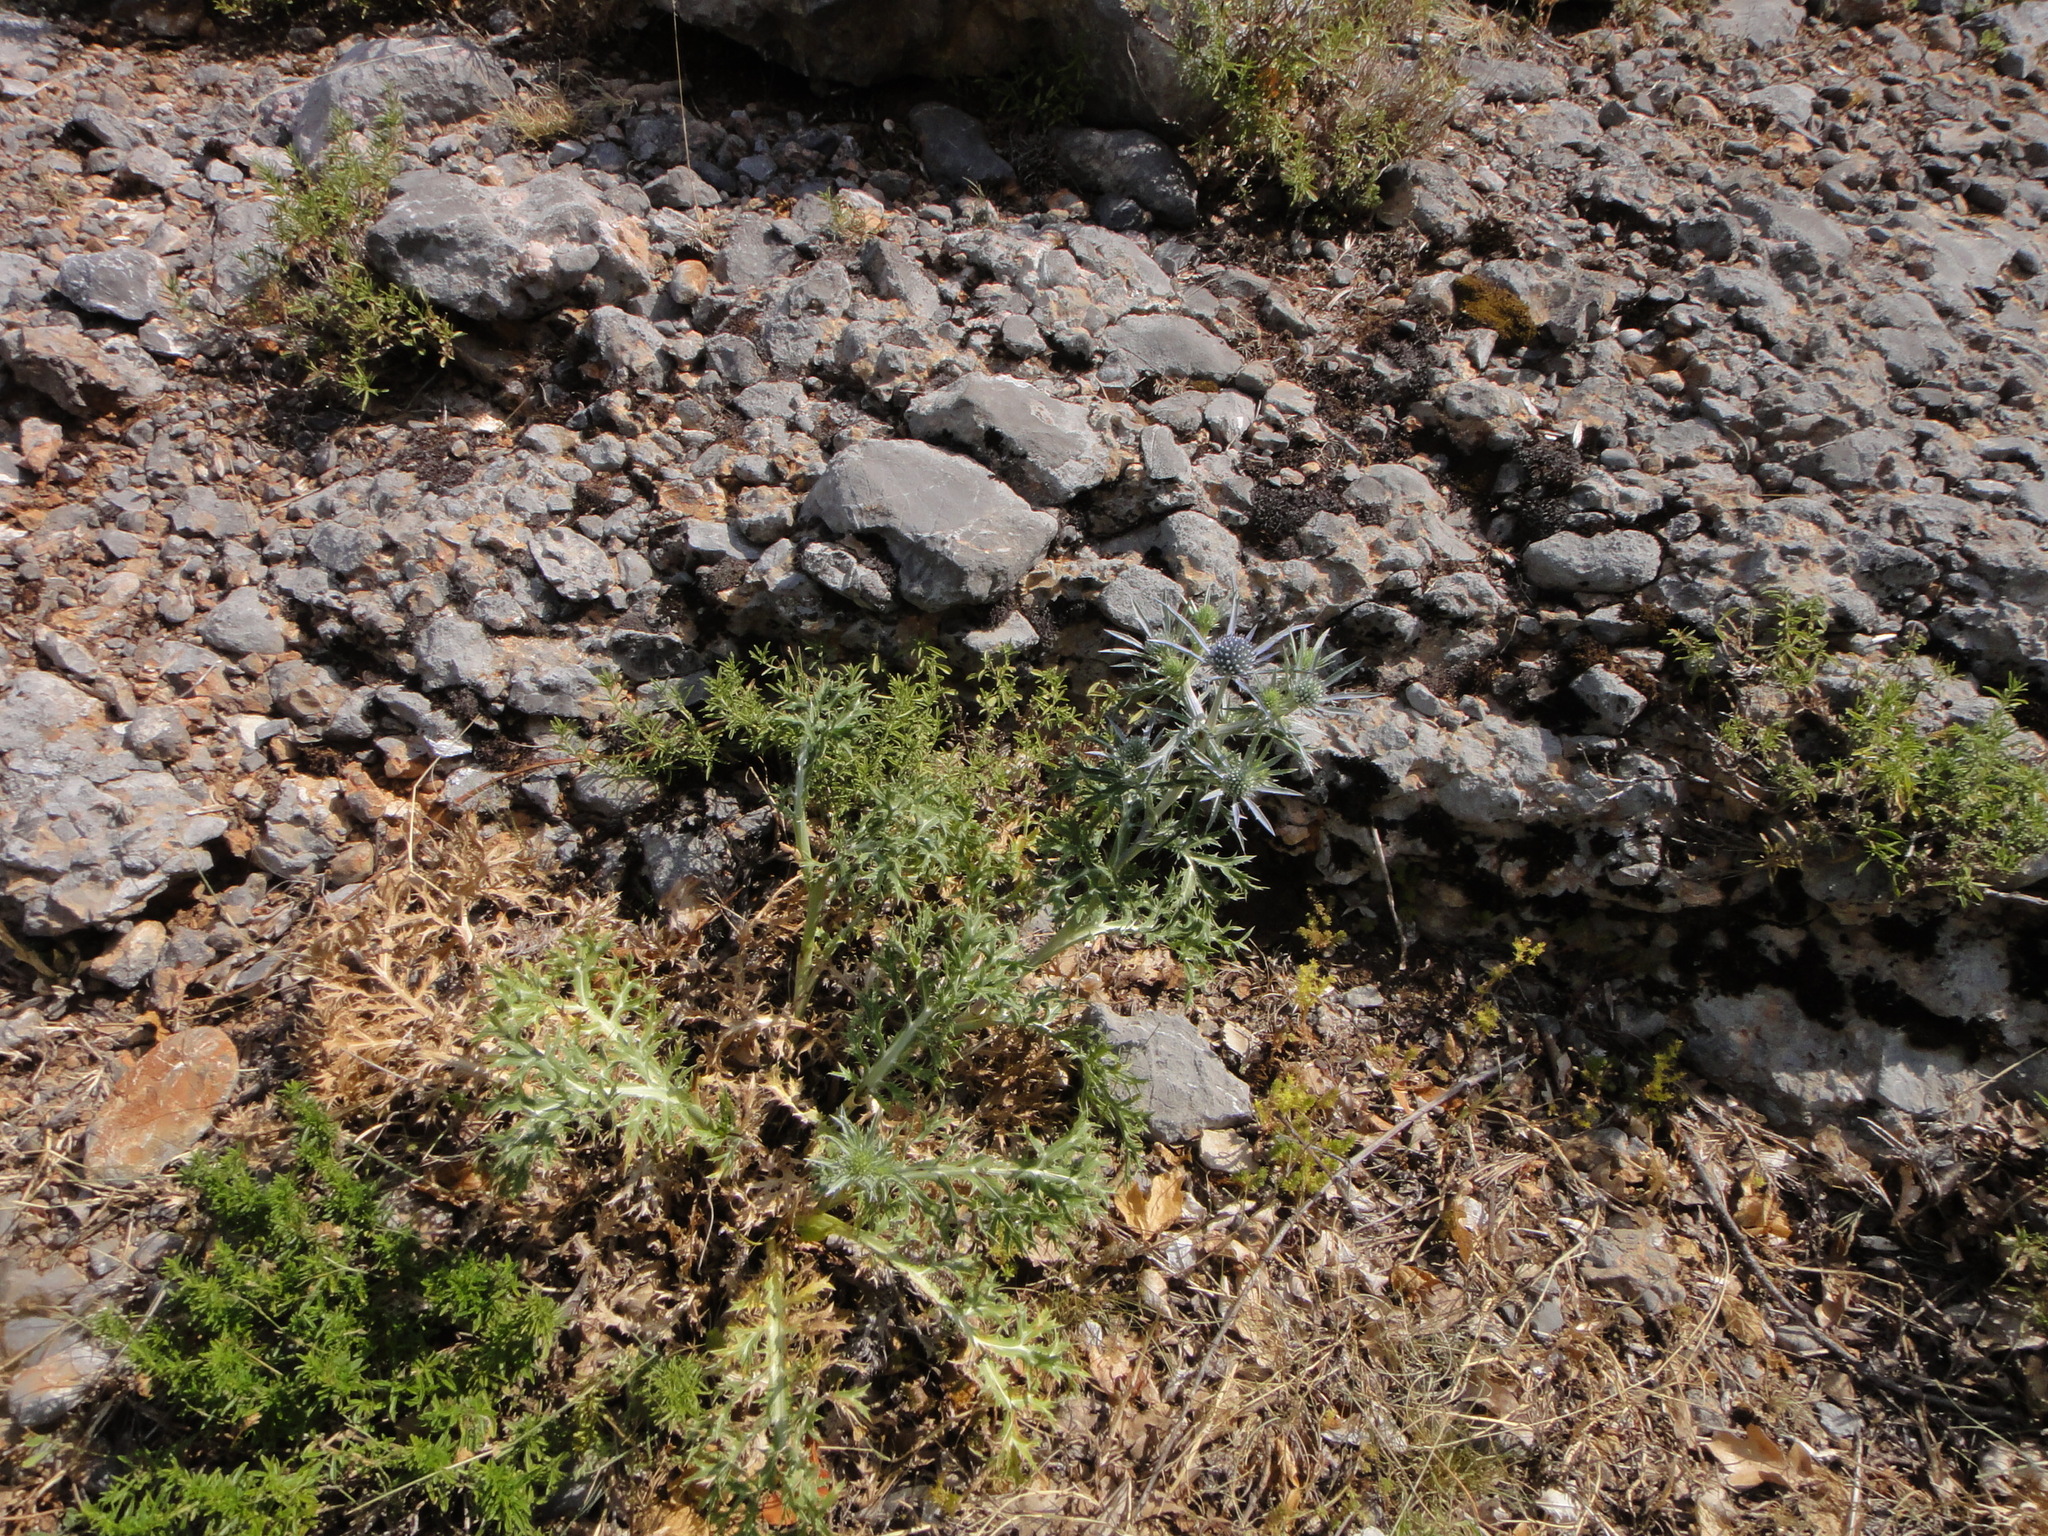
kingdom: Plantae
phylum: Tracheophyta
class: Magnoliopsida
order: Apiales
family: Apiaceae
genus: Eryngium
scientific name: Eryngium amethystinum
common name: Amethyst eryngo
